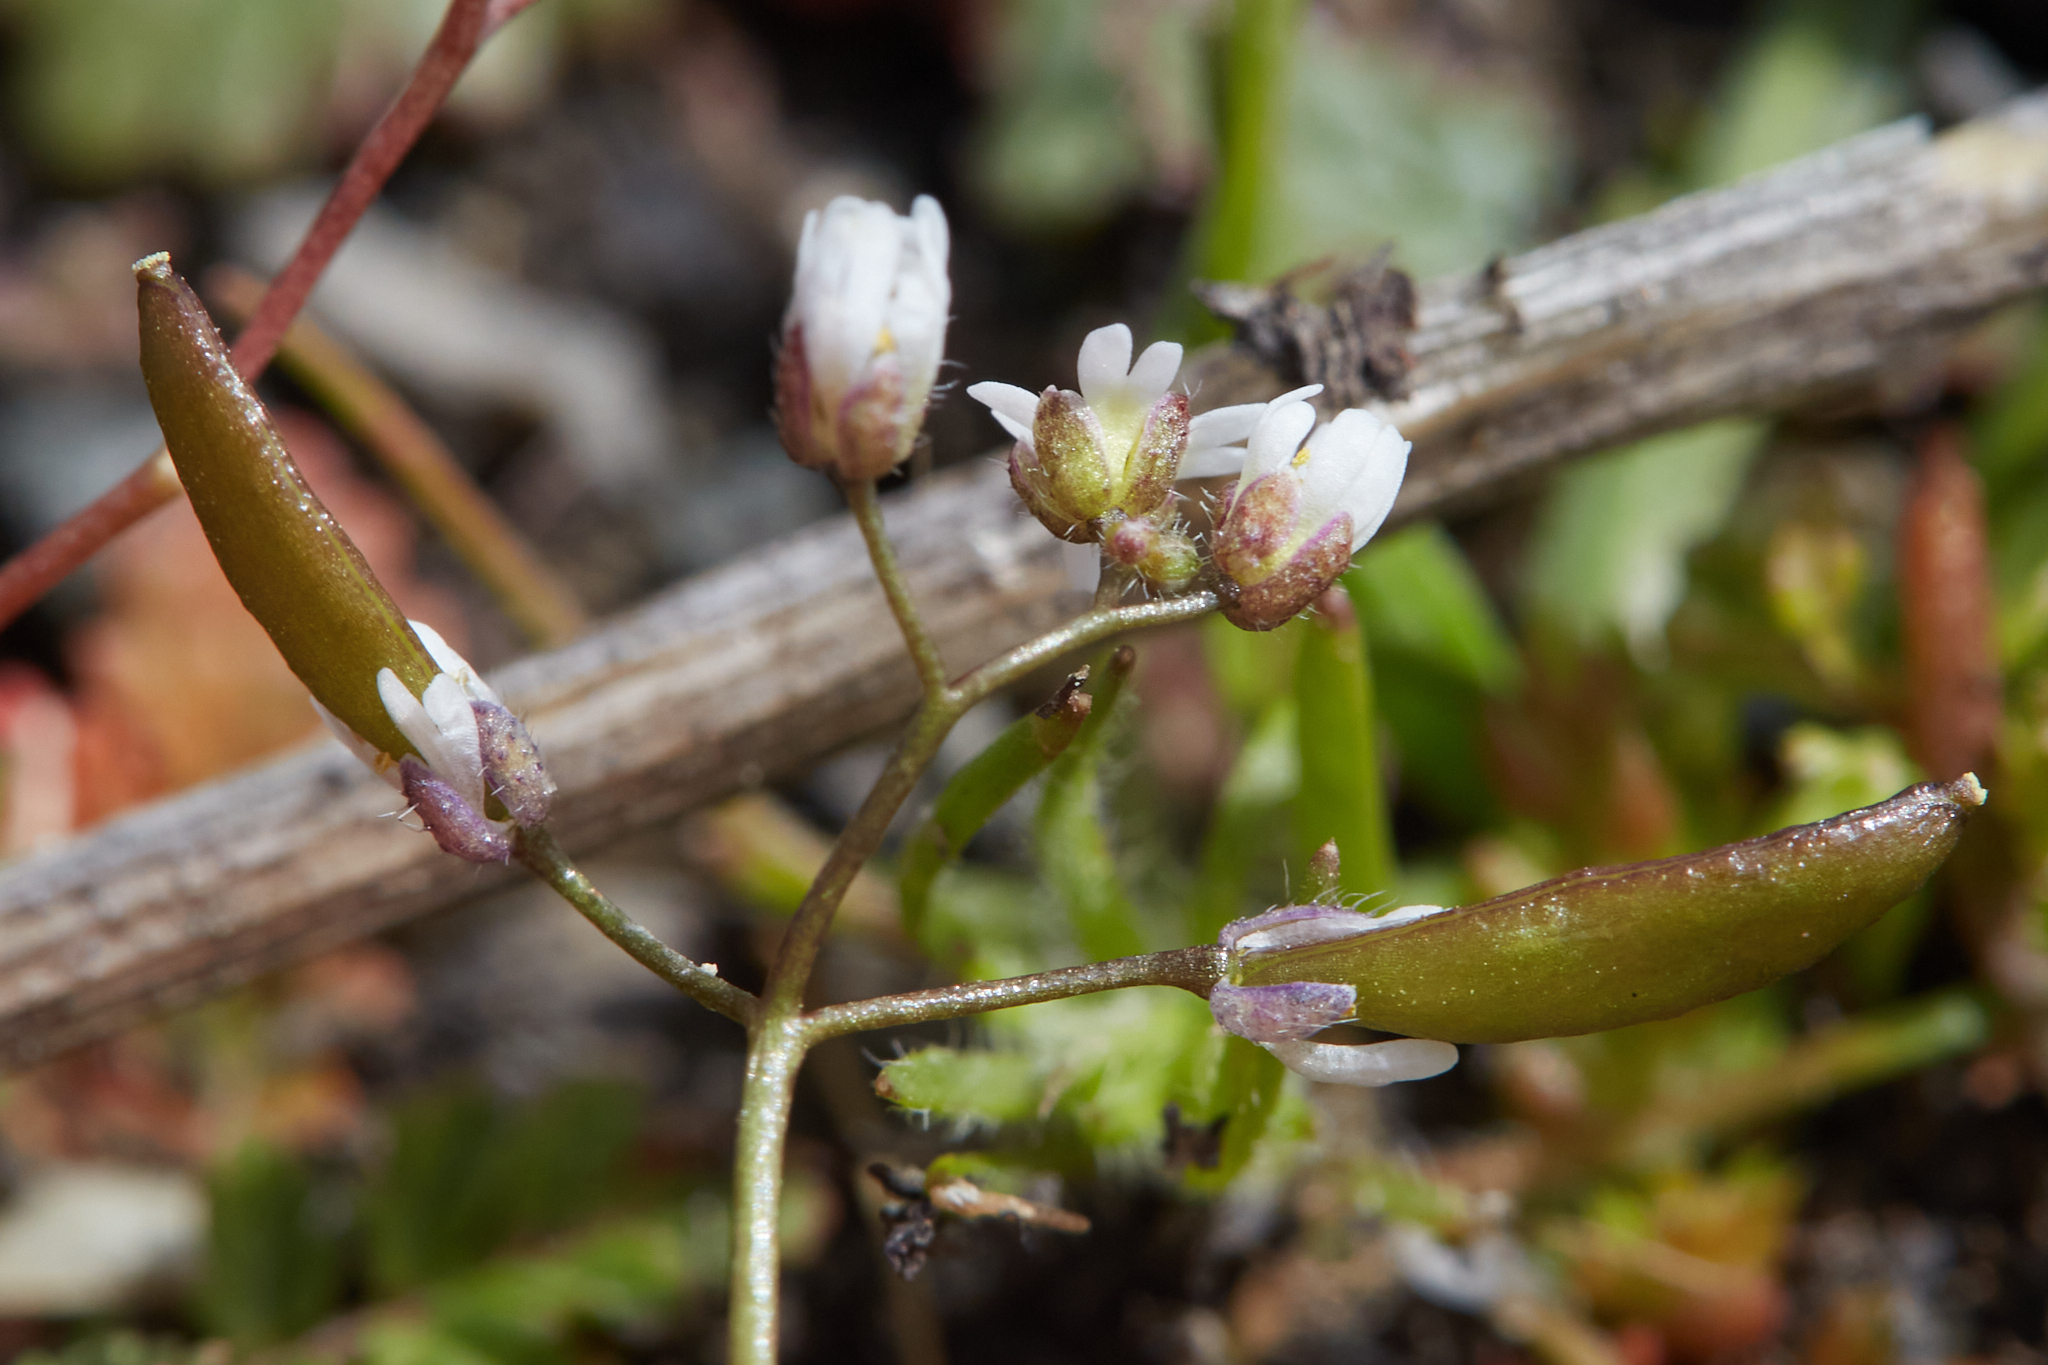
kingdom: Plantae
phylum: Tracheophyta
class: Magnoliopsida
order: Brassicales
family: Brassicaceae
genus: Draba
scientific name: Draba verna
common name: Spring draba
